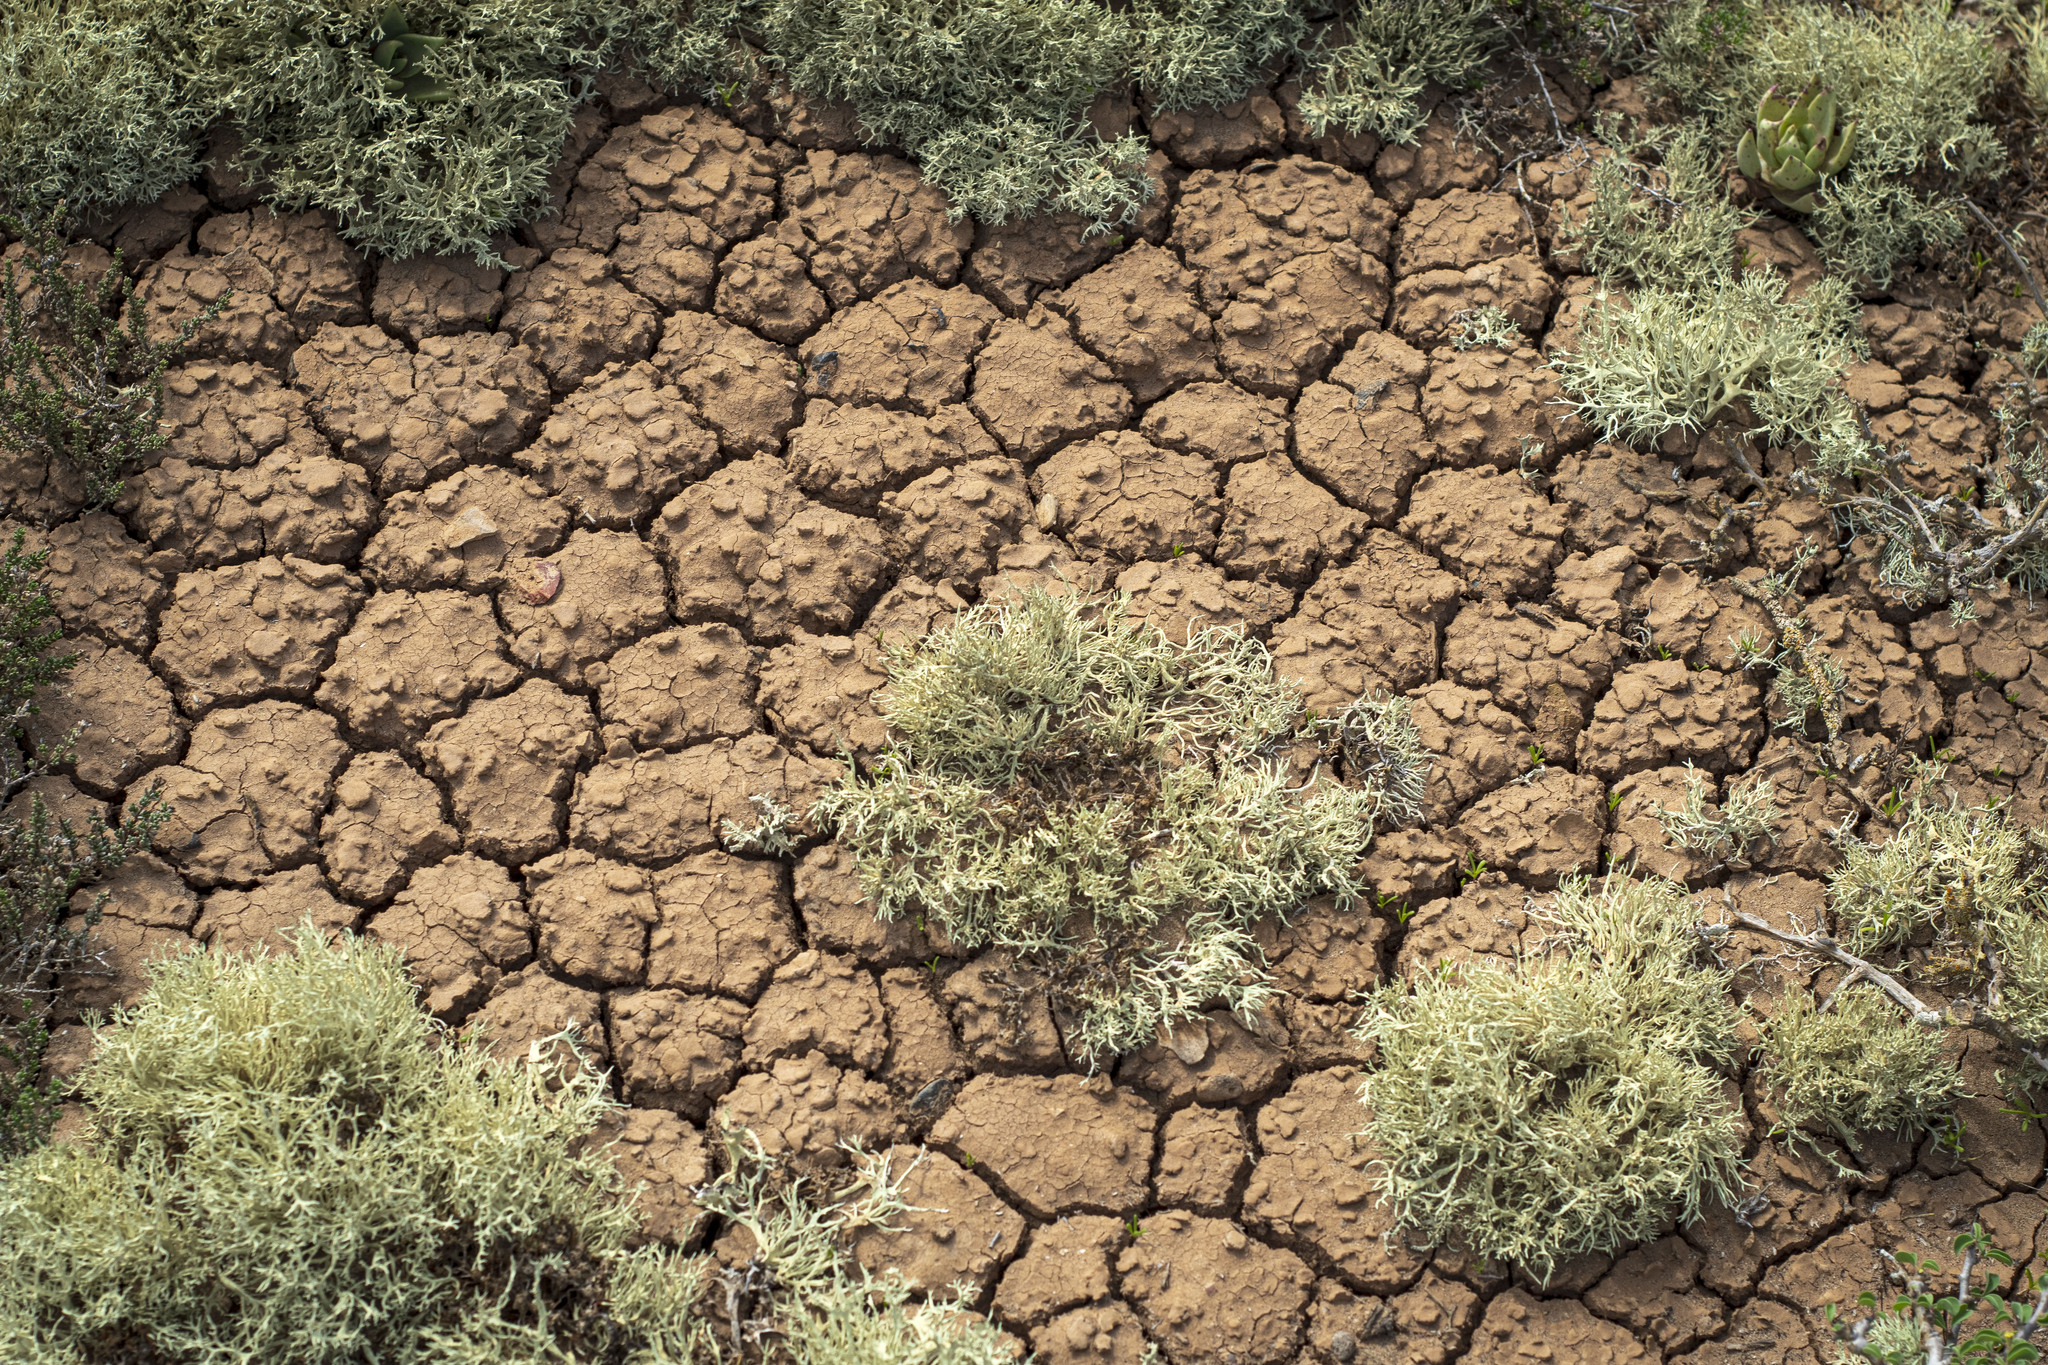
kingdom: Fungi
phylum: Ascomycota
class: Lecanoromycetes
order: Lecanorales
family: Ramalinaceae
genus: Niebla
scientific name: Niebla
